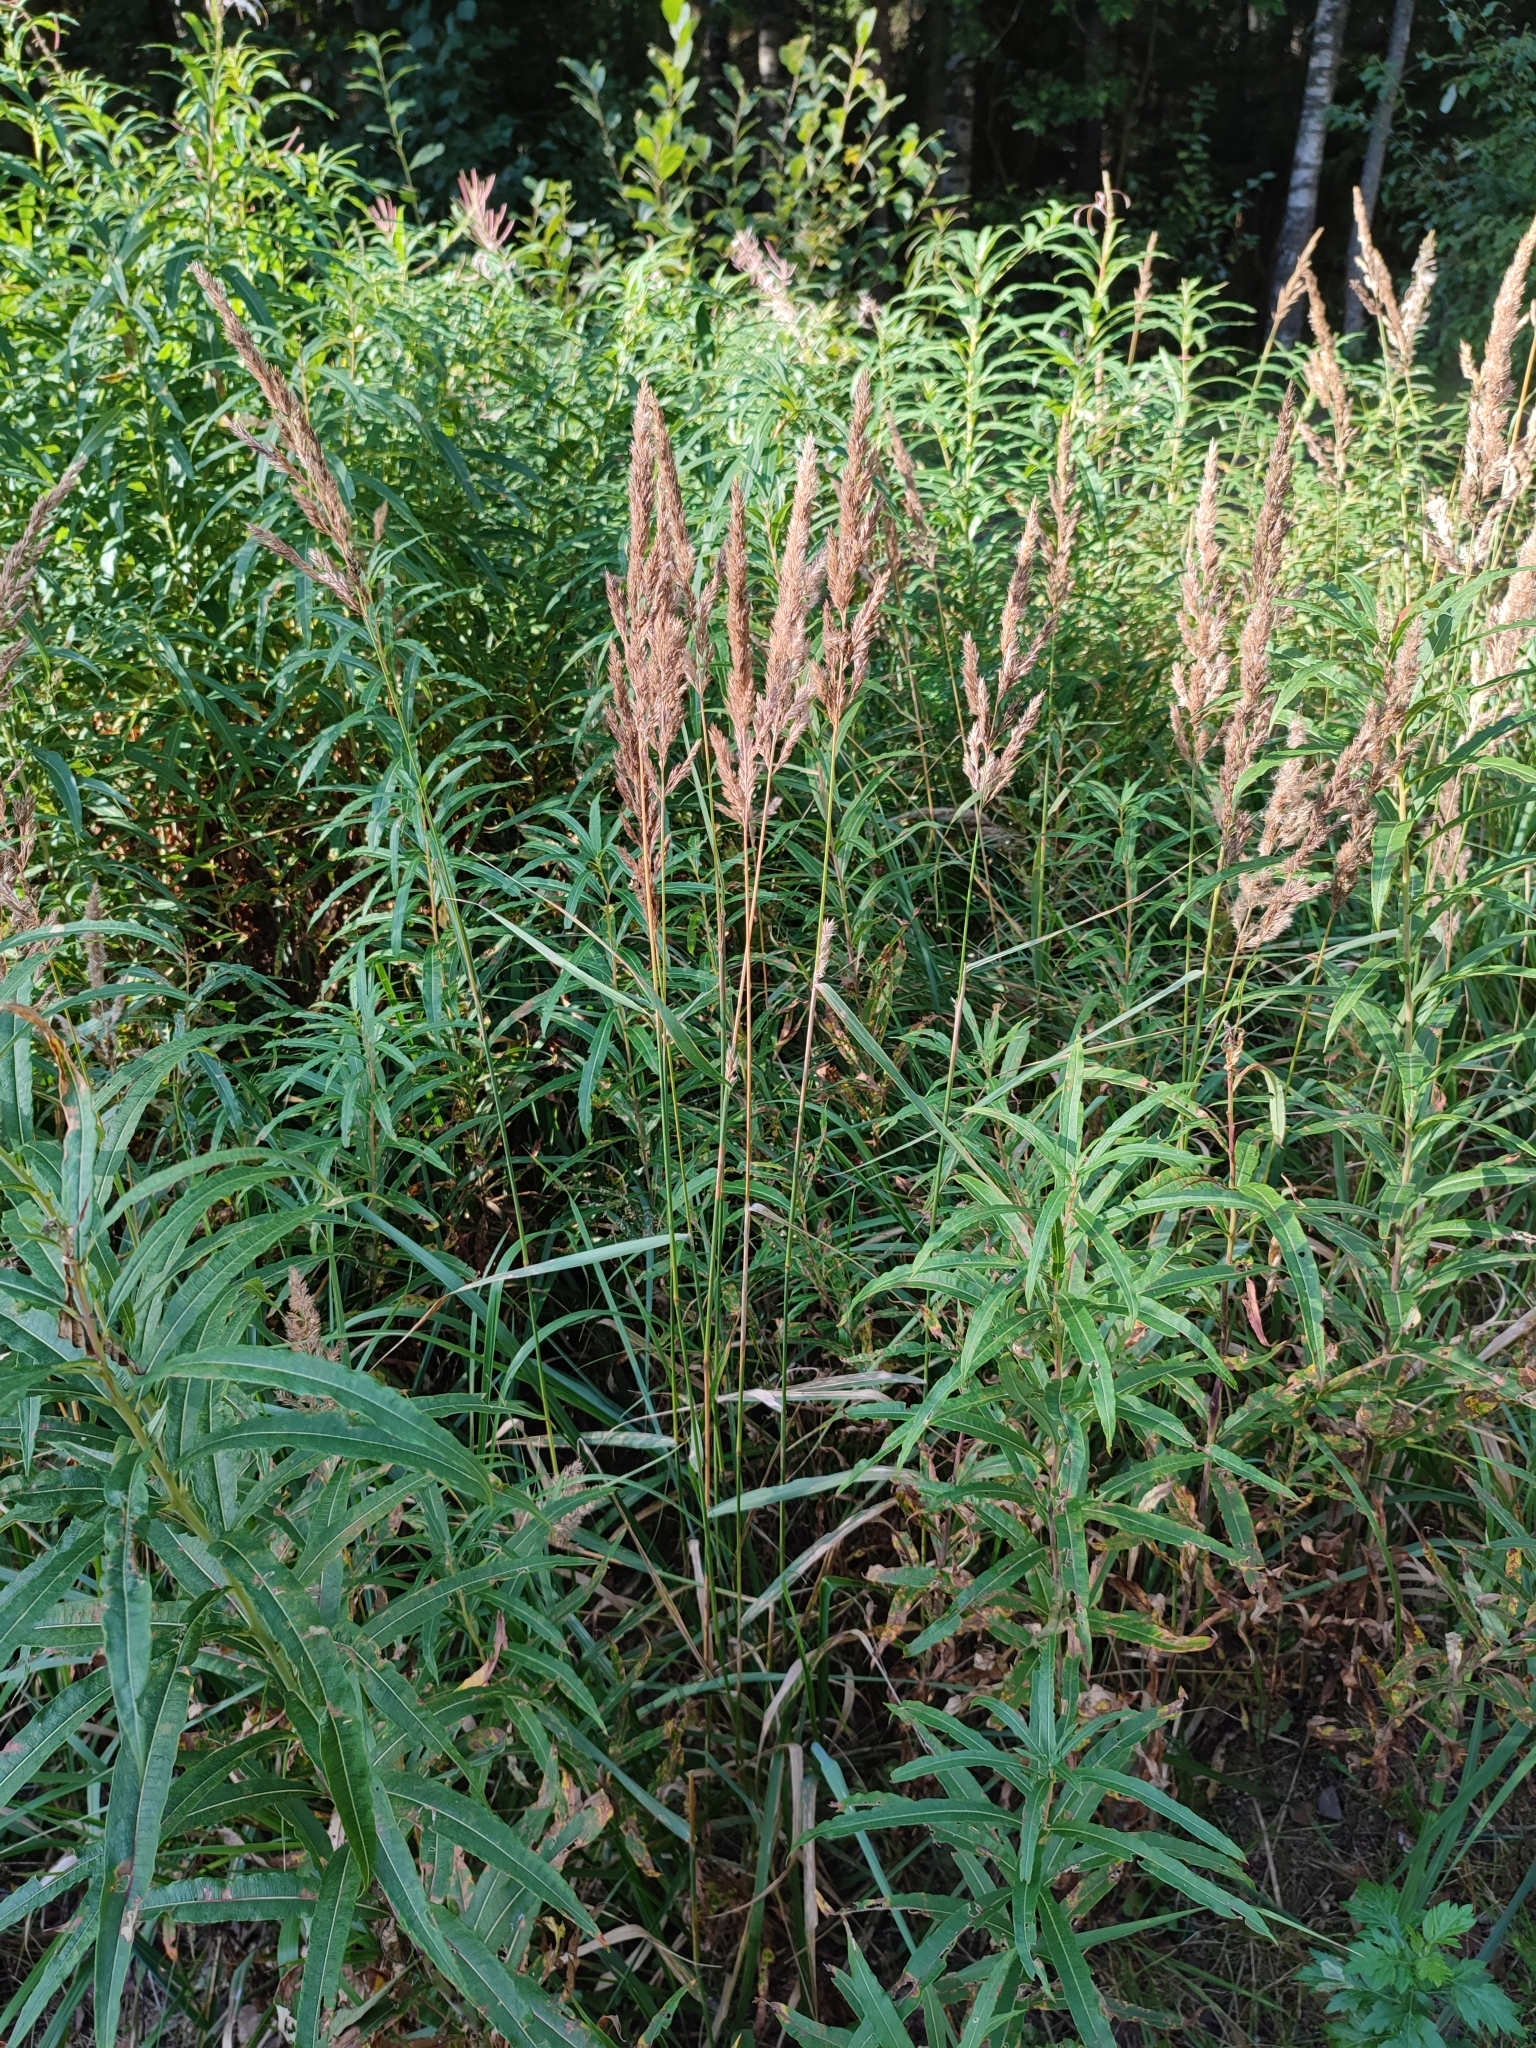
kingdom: Plantae
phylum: Tracheophyta
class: Liliopsida
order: Poales
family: Poaceae
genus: Calamagrostis
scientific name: Calamagrostis epigejos
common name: Wood small-reed
